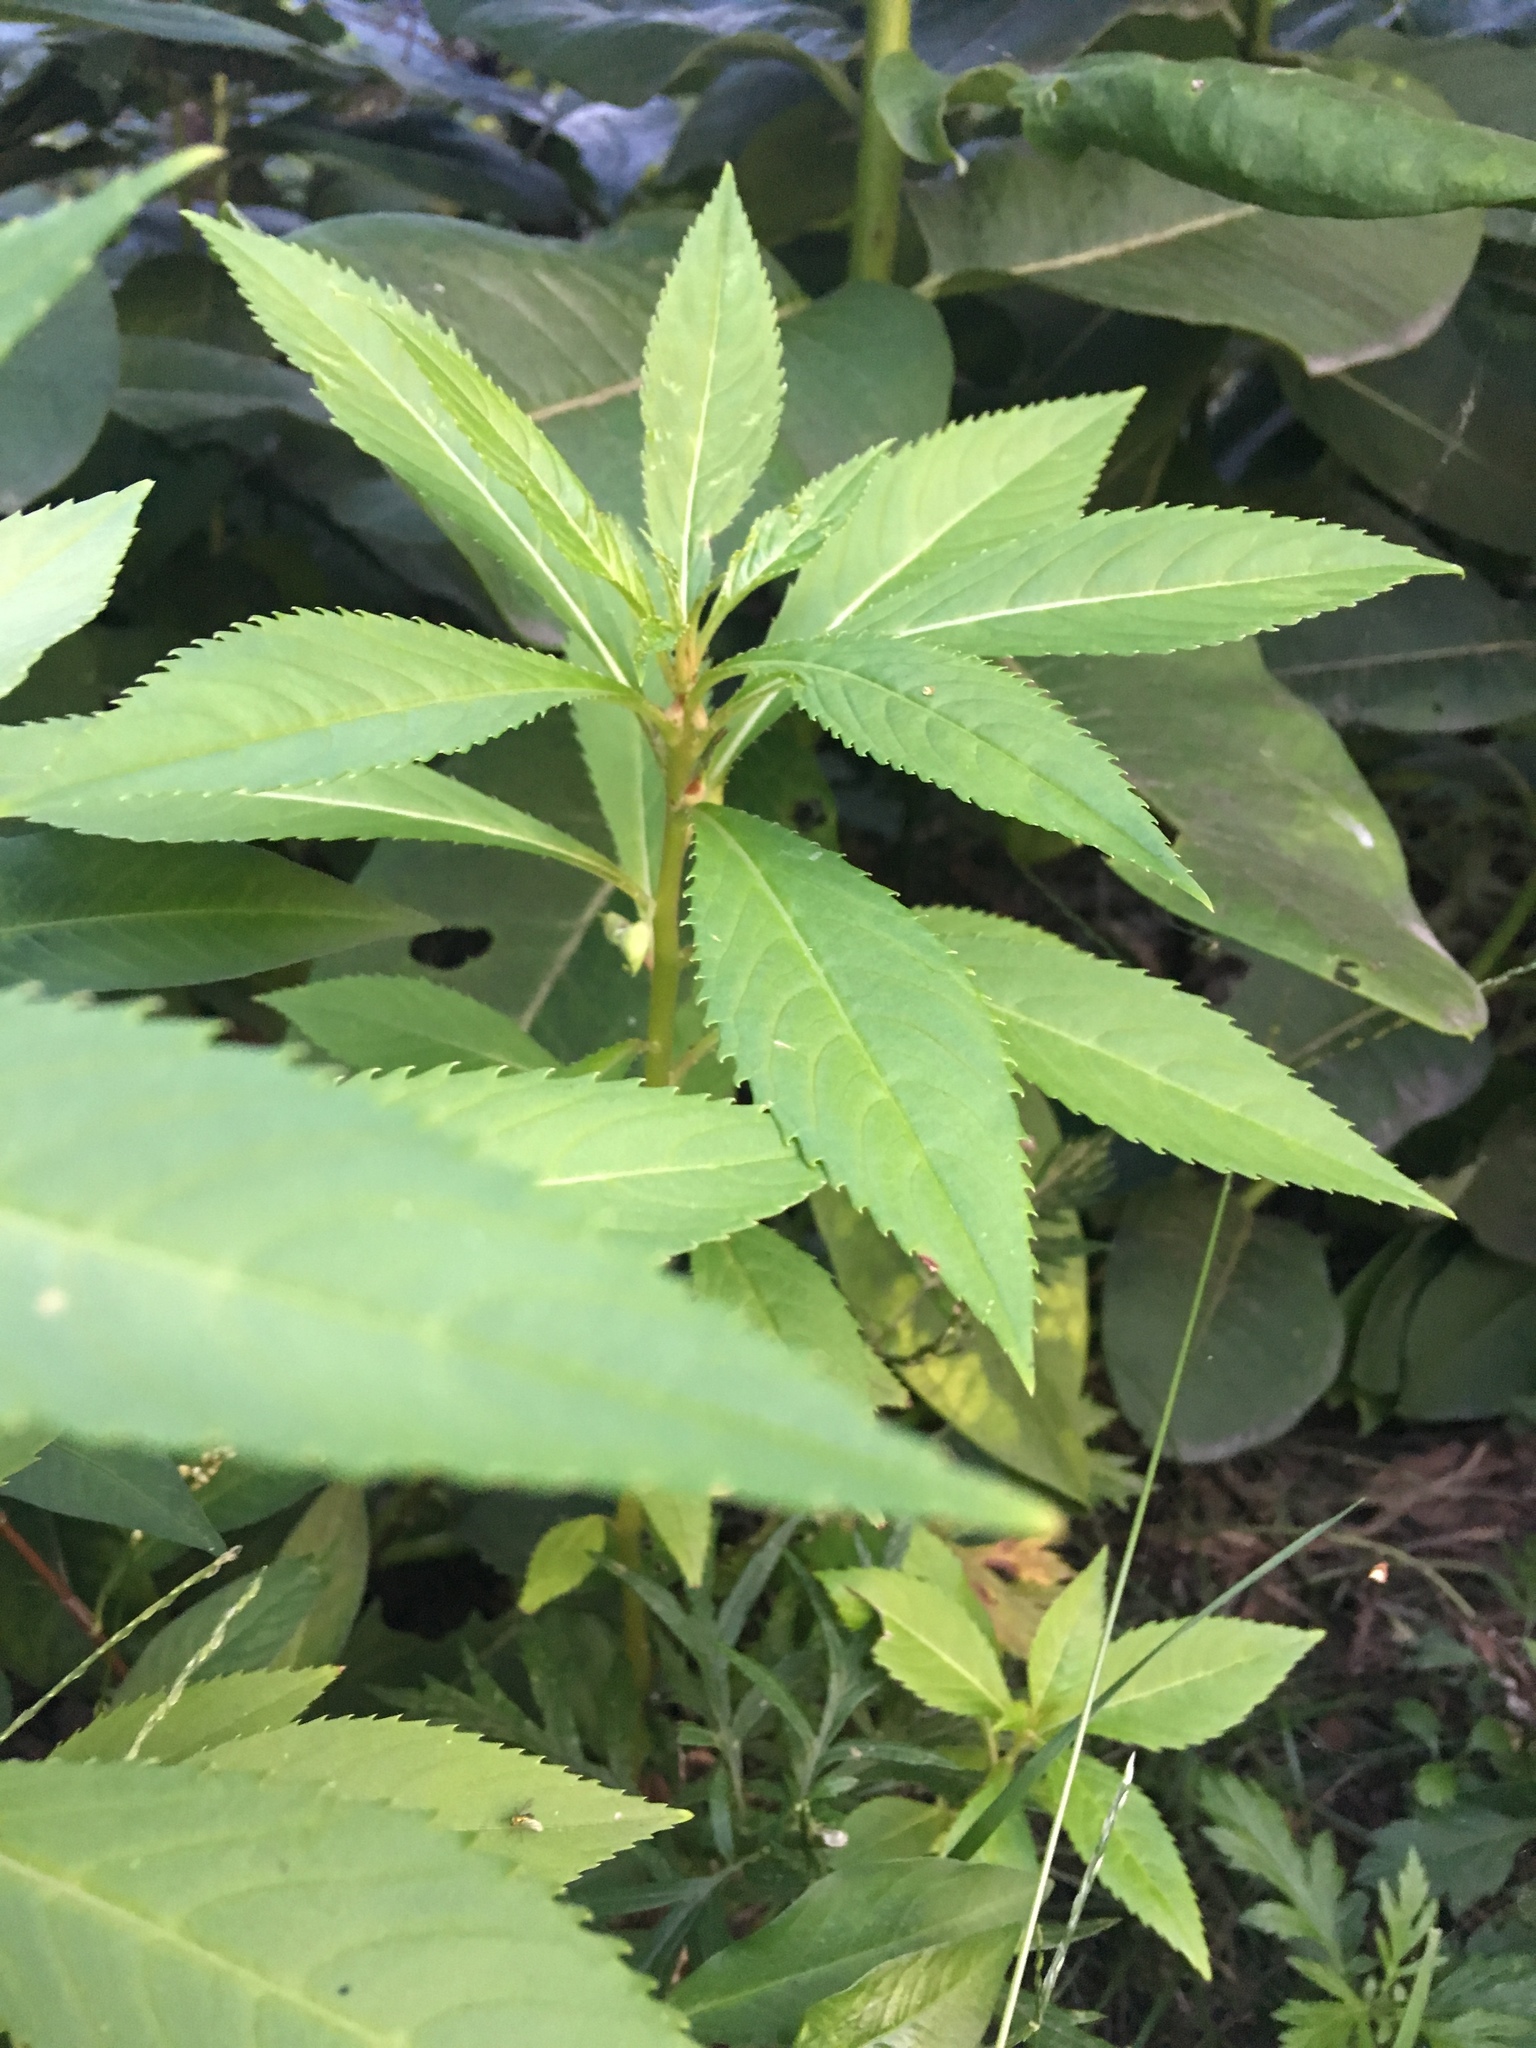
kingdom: Plantae
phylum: Tracheophyta
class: Magnoliopsida
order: Ericales
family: Balsaminaceae
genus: Impatiens
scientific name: Impatiens balsamina
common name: Balsam
